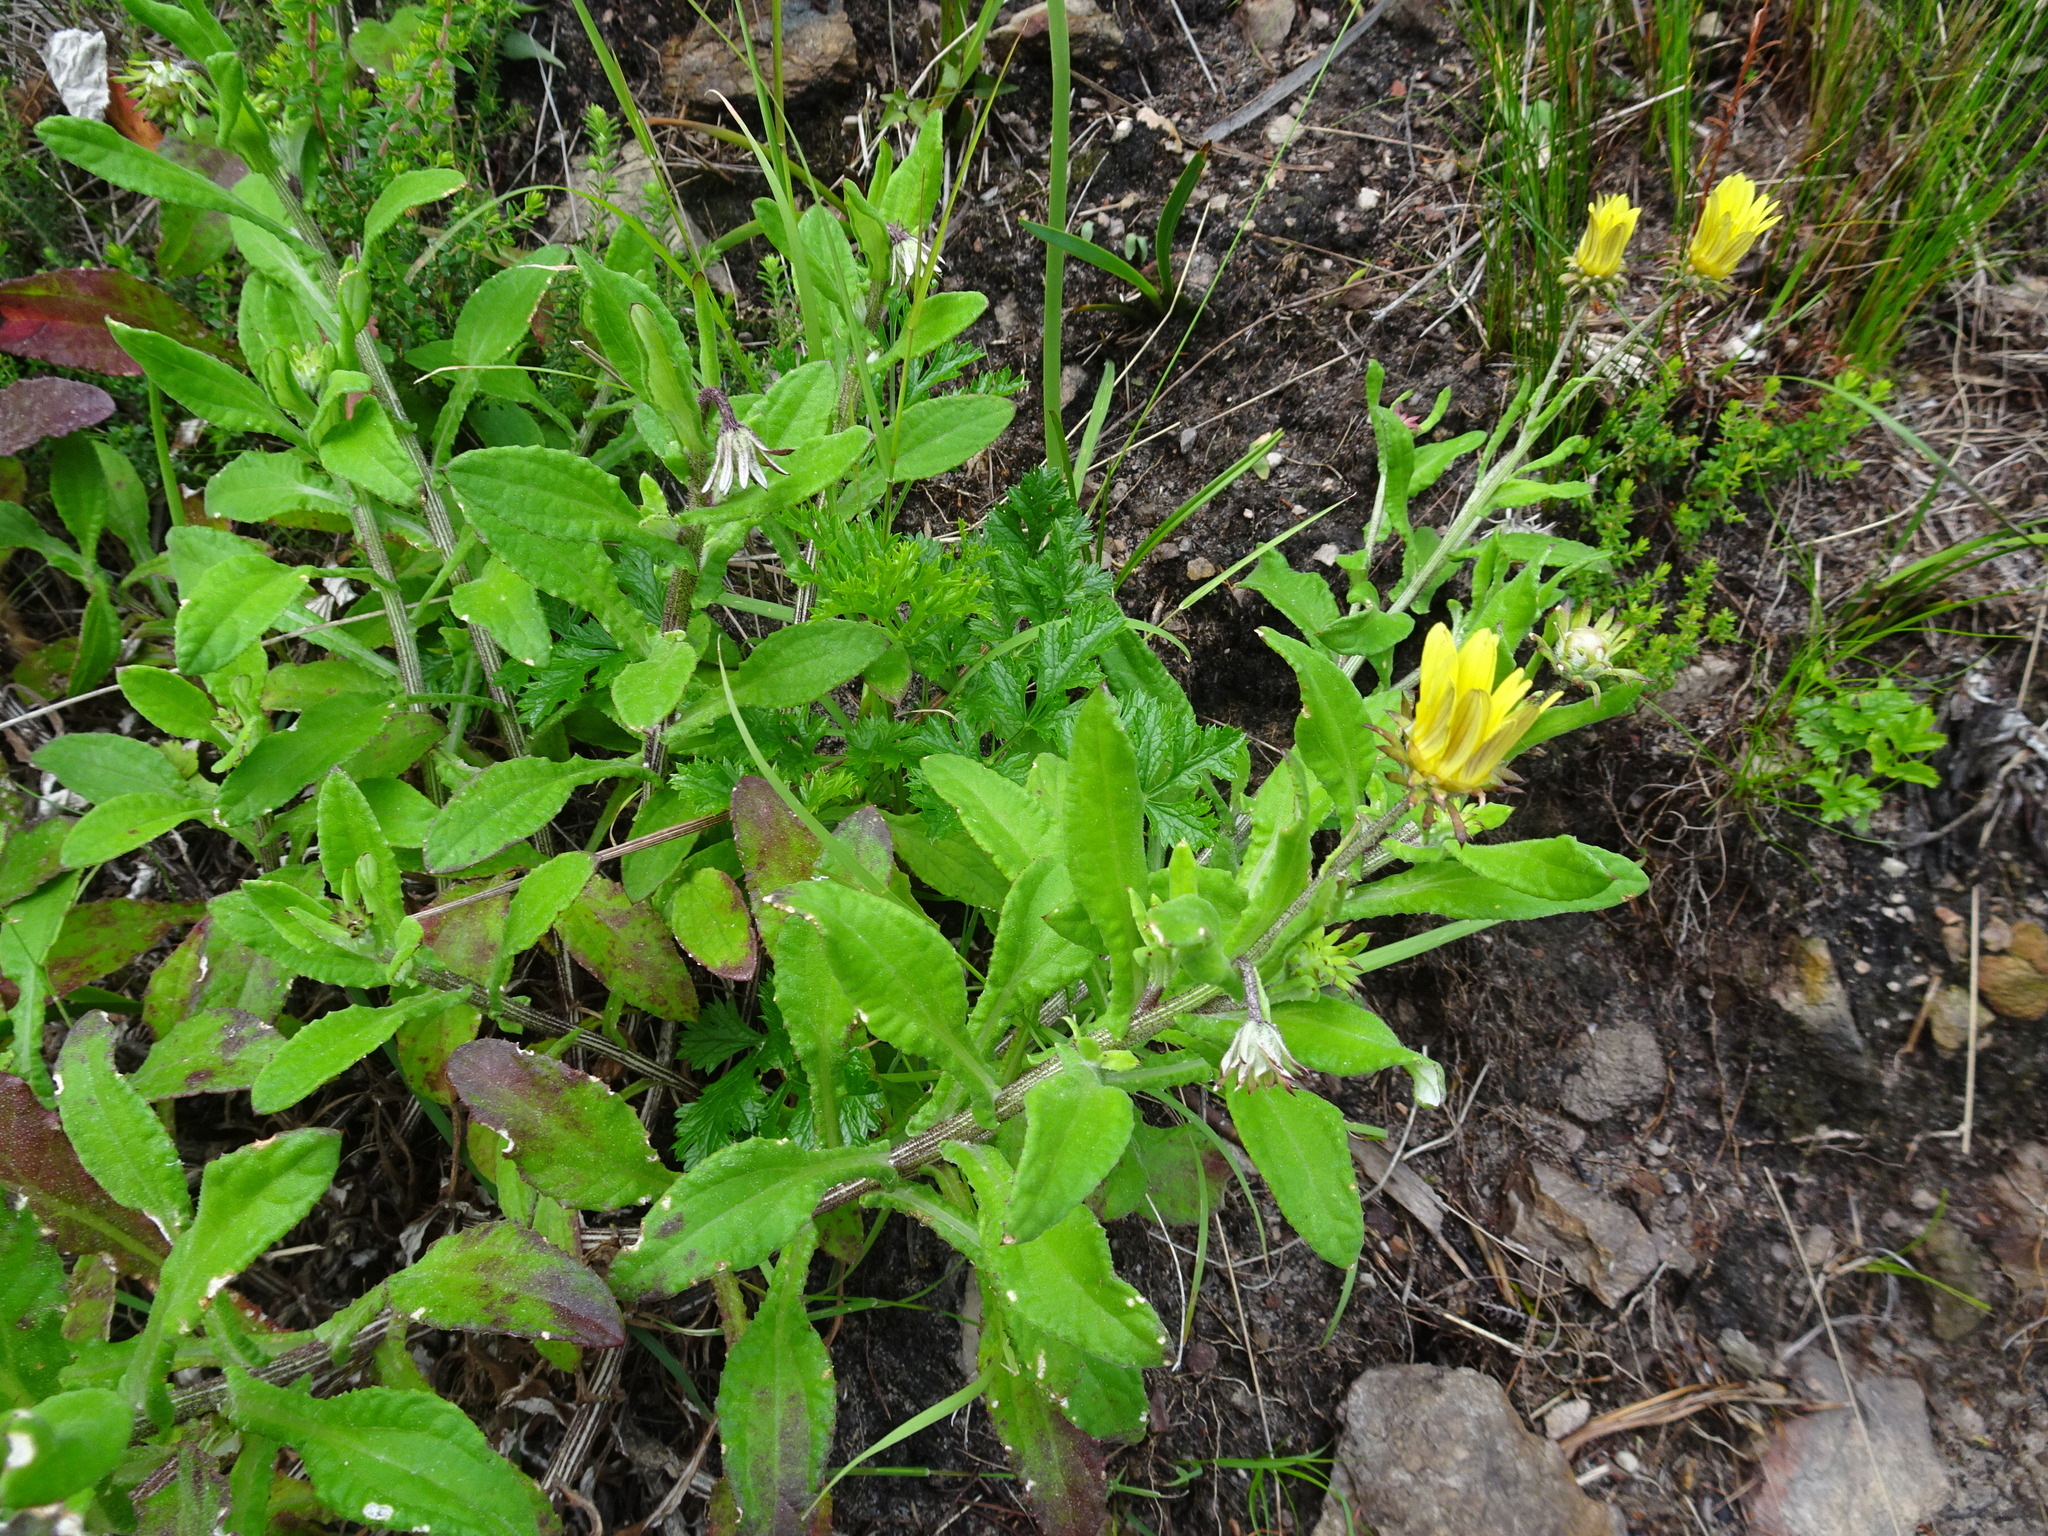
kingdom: Plantae
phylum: Tracheophyta
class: Magnoliopsida
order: Asterales
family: Asteraceae
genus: Arctotis
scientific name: Arctotis scabra
